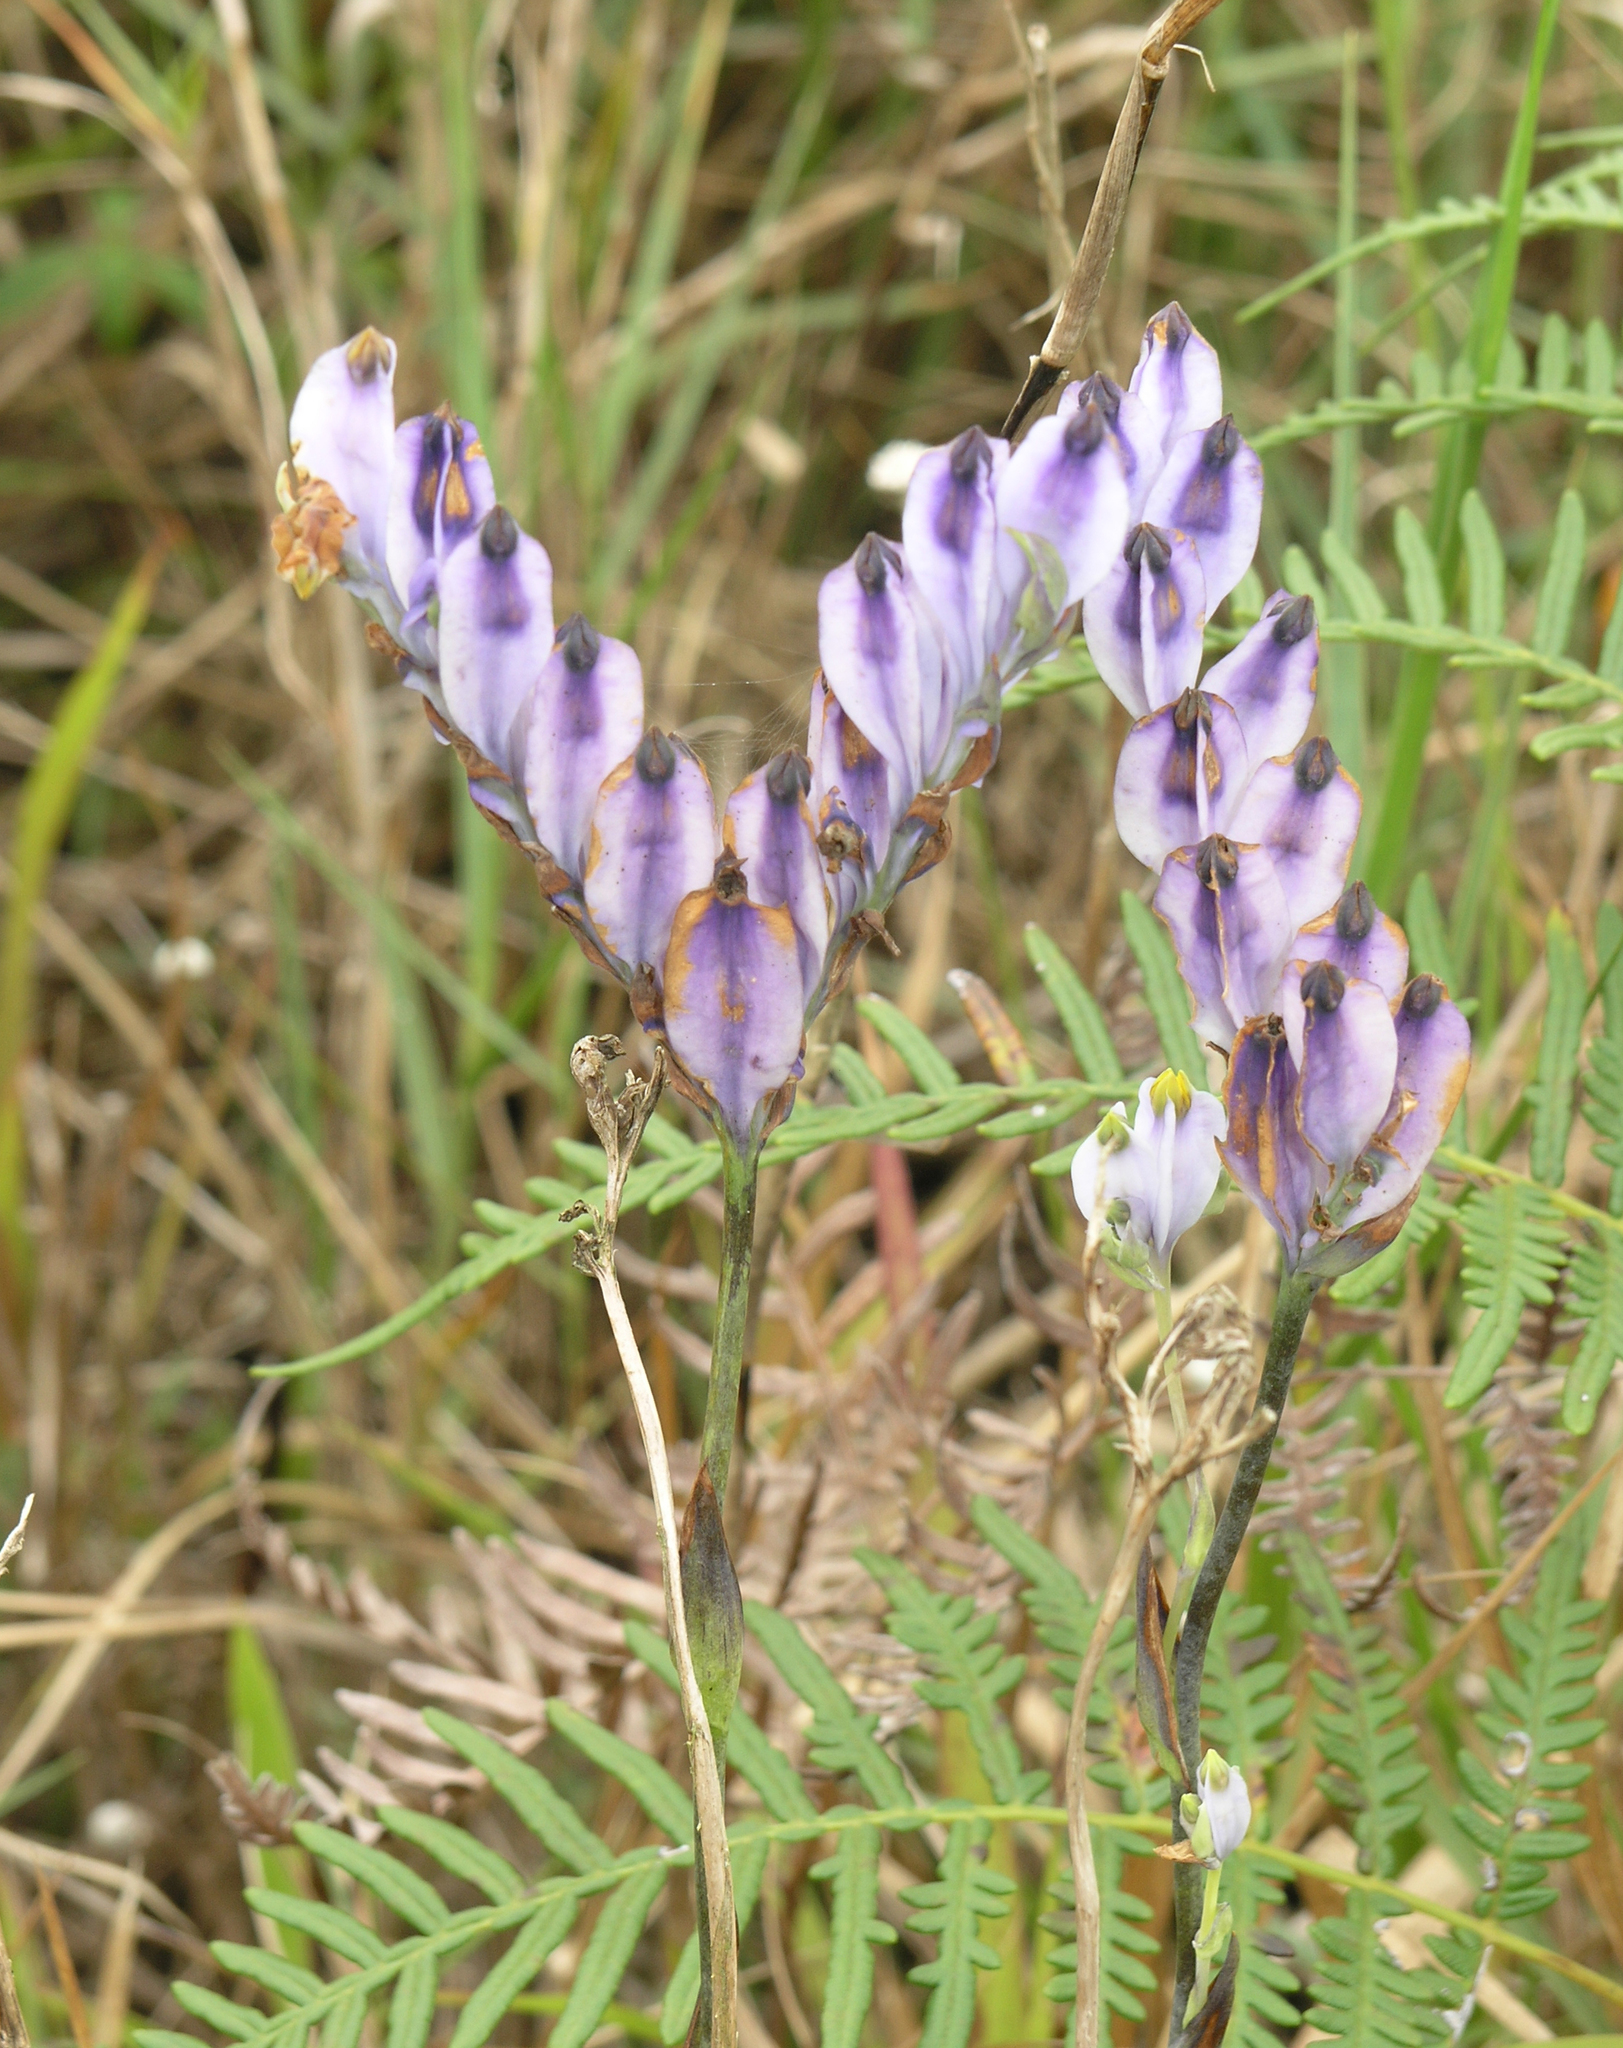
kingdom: Plantae
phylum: Tracheophyta
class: Liliopsida
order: Dioscoreales
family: Burmanniaceae
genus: Burmannia
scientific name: Burmannia disticha
